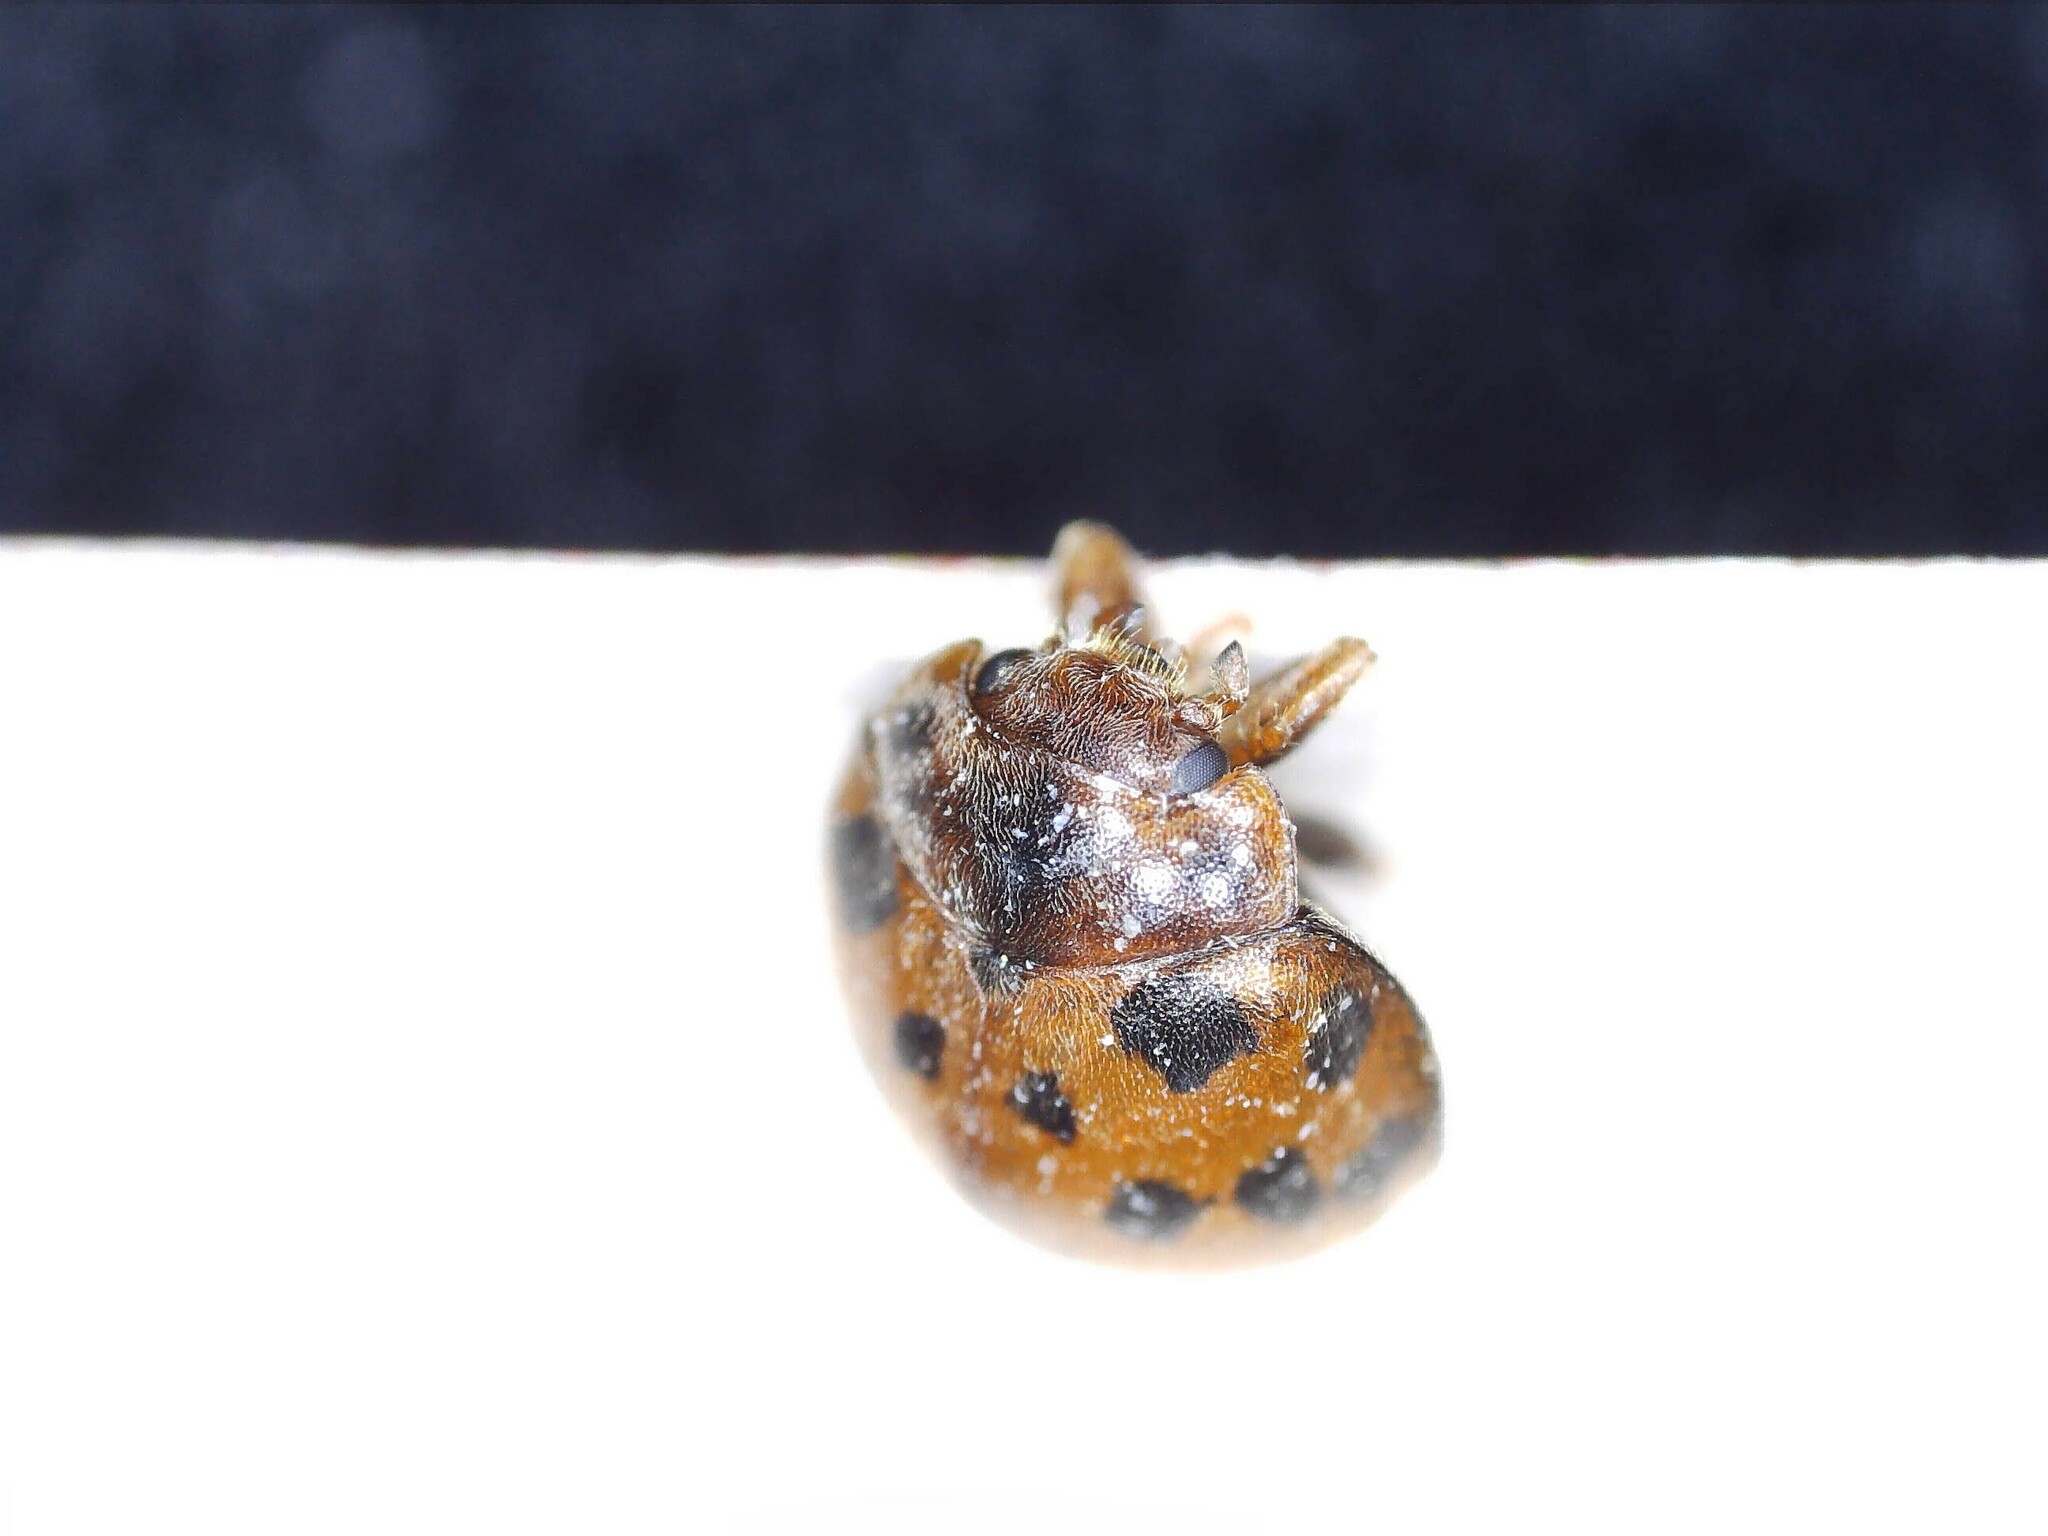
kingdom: Animalia
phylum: Arthropoda
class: Insecta
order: Coleoptera
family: Coccinellidae
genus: Subcoccinella
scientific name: Subcoccinella vigintiquatuorpunctata
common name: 24-spot ladybird
